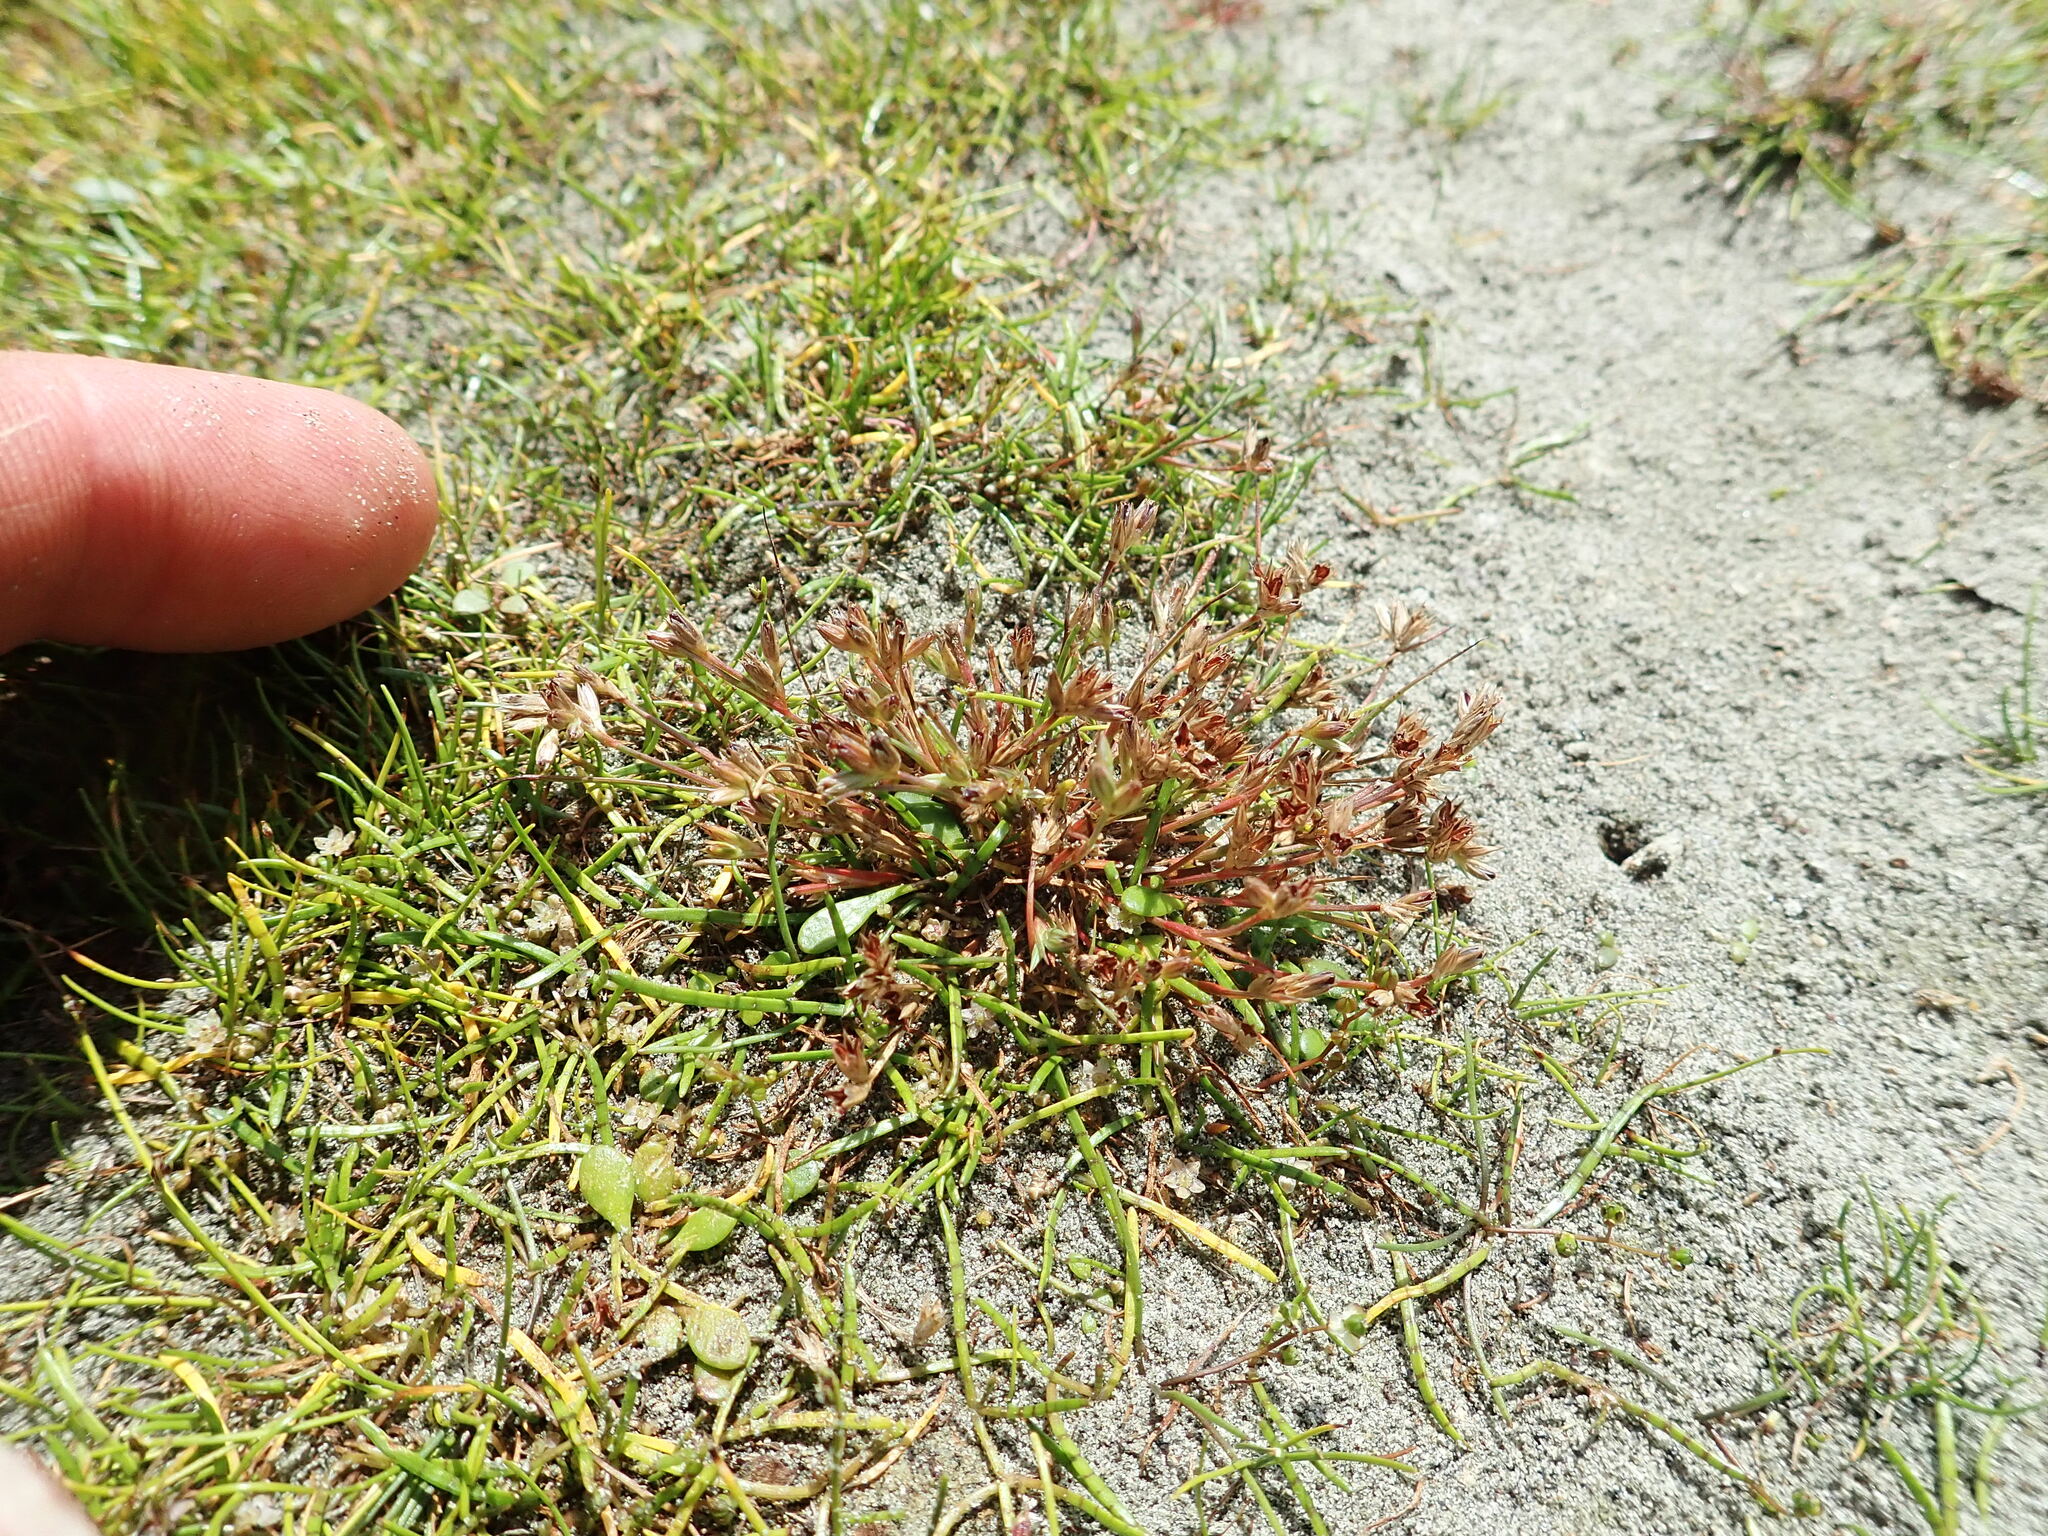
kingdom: Plantae
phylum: Tracheophyta
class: Liliopsida
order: Poales
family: Juncaceae
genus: Juncus
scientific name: Juncus bufonius
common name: Toad rush
